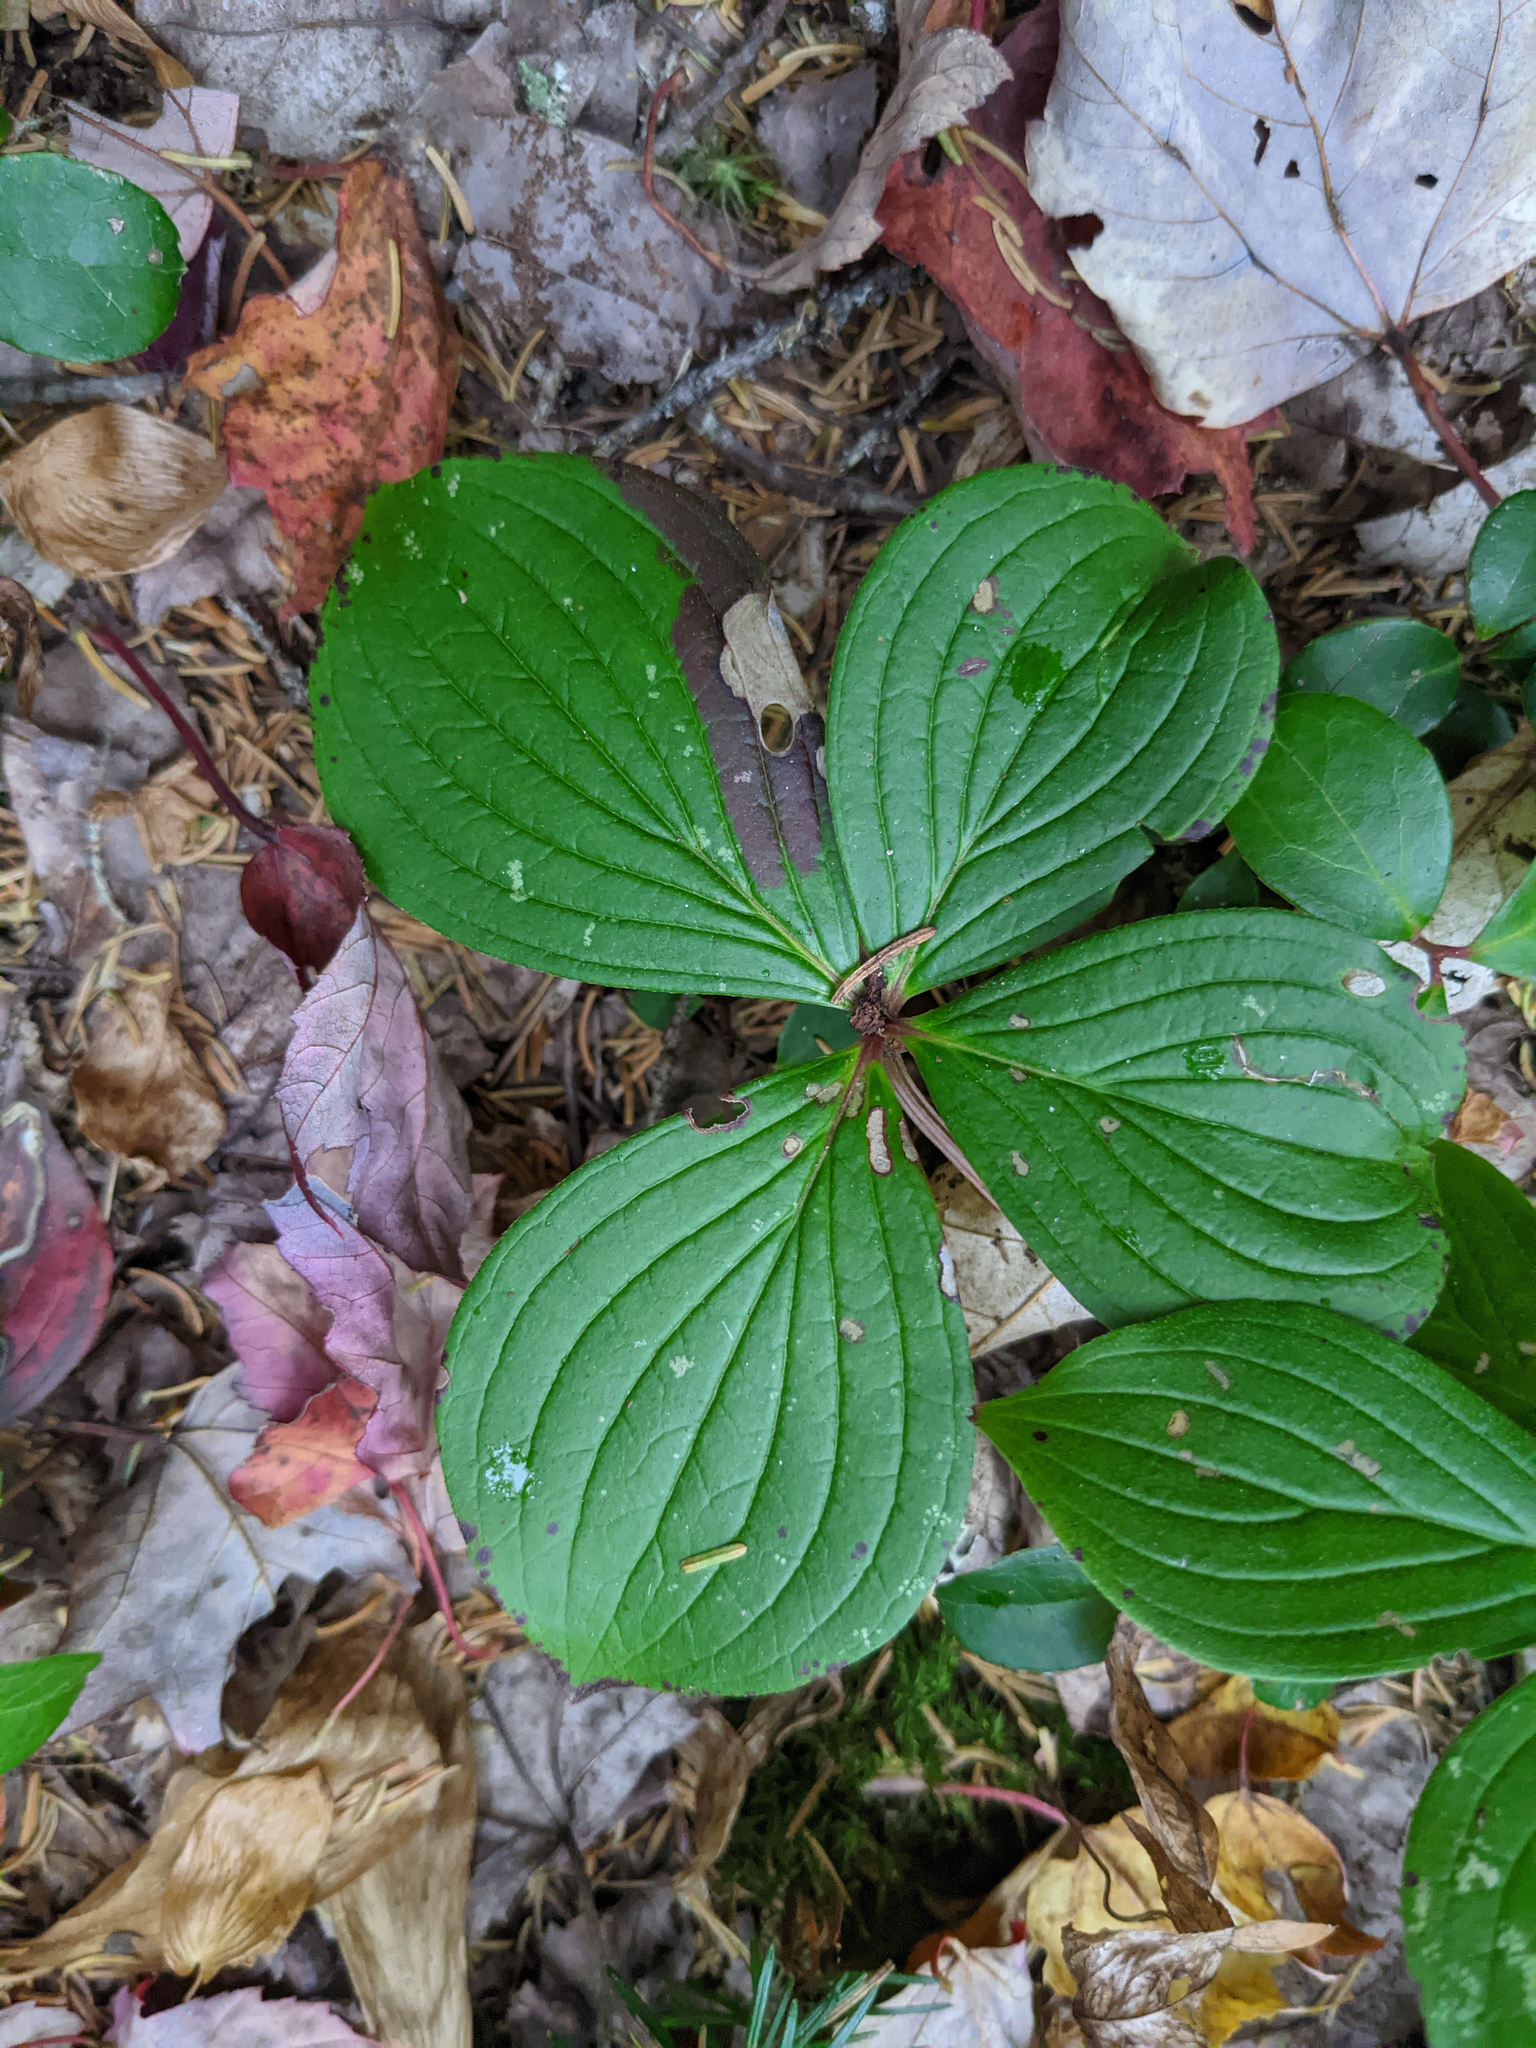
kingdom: Plantae
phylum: Tracheophyta
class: Magnoliopsida
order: Cornales
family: Cornaceae
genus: Cornus
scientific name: Cornus canadensis
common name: Creeping dogwood
